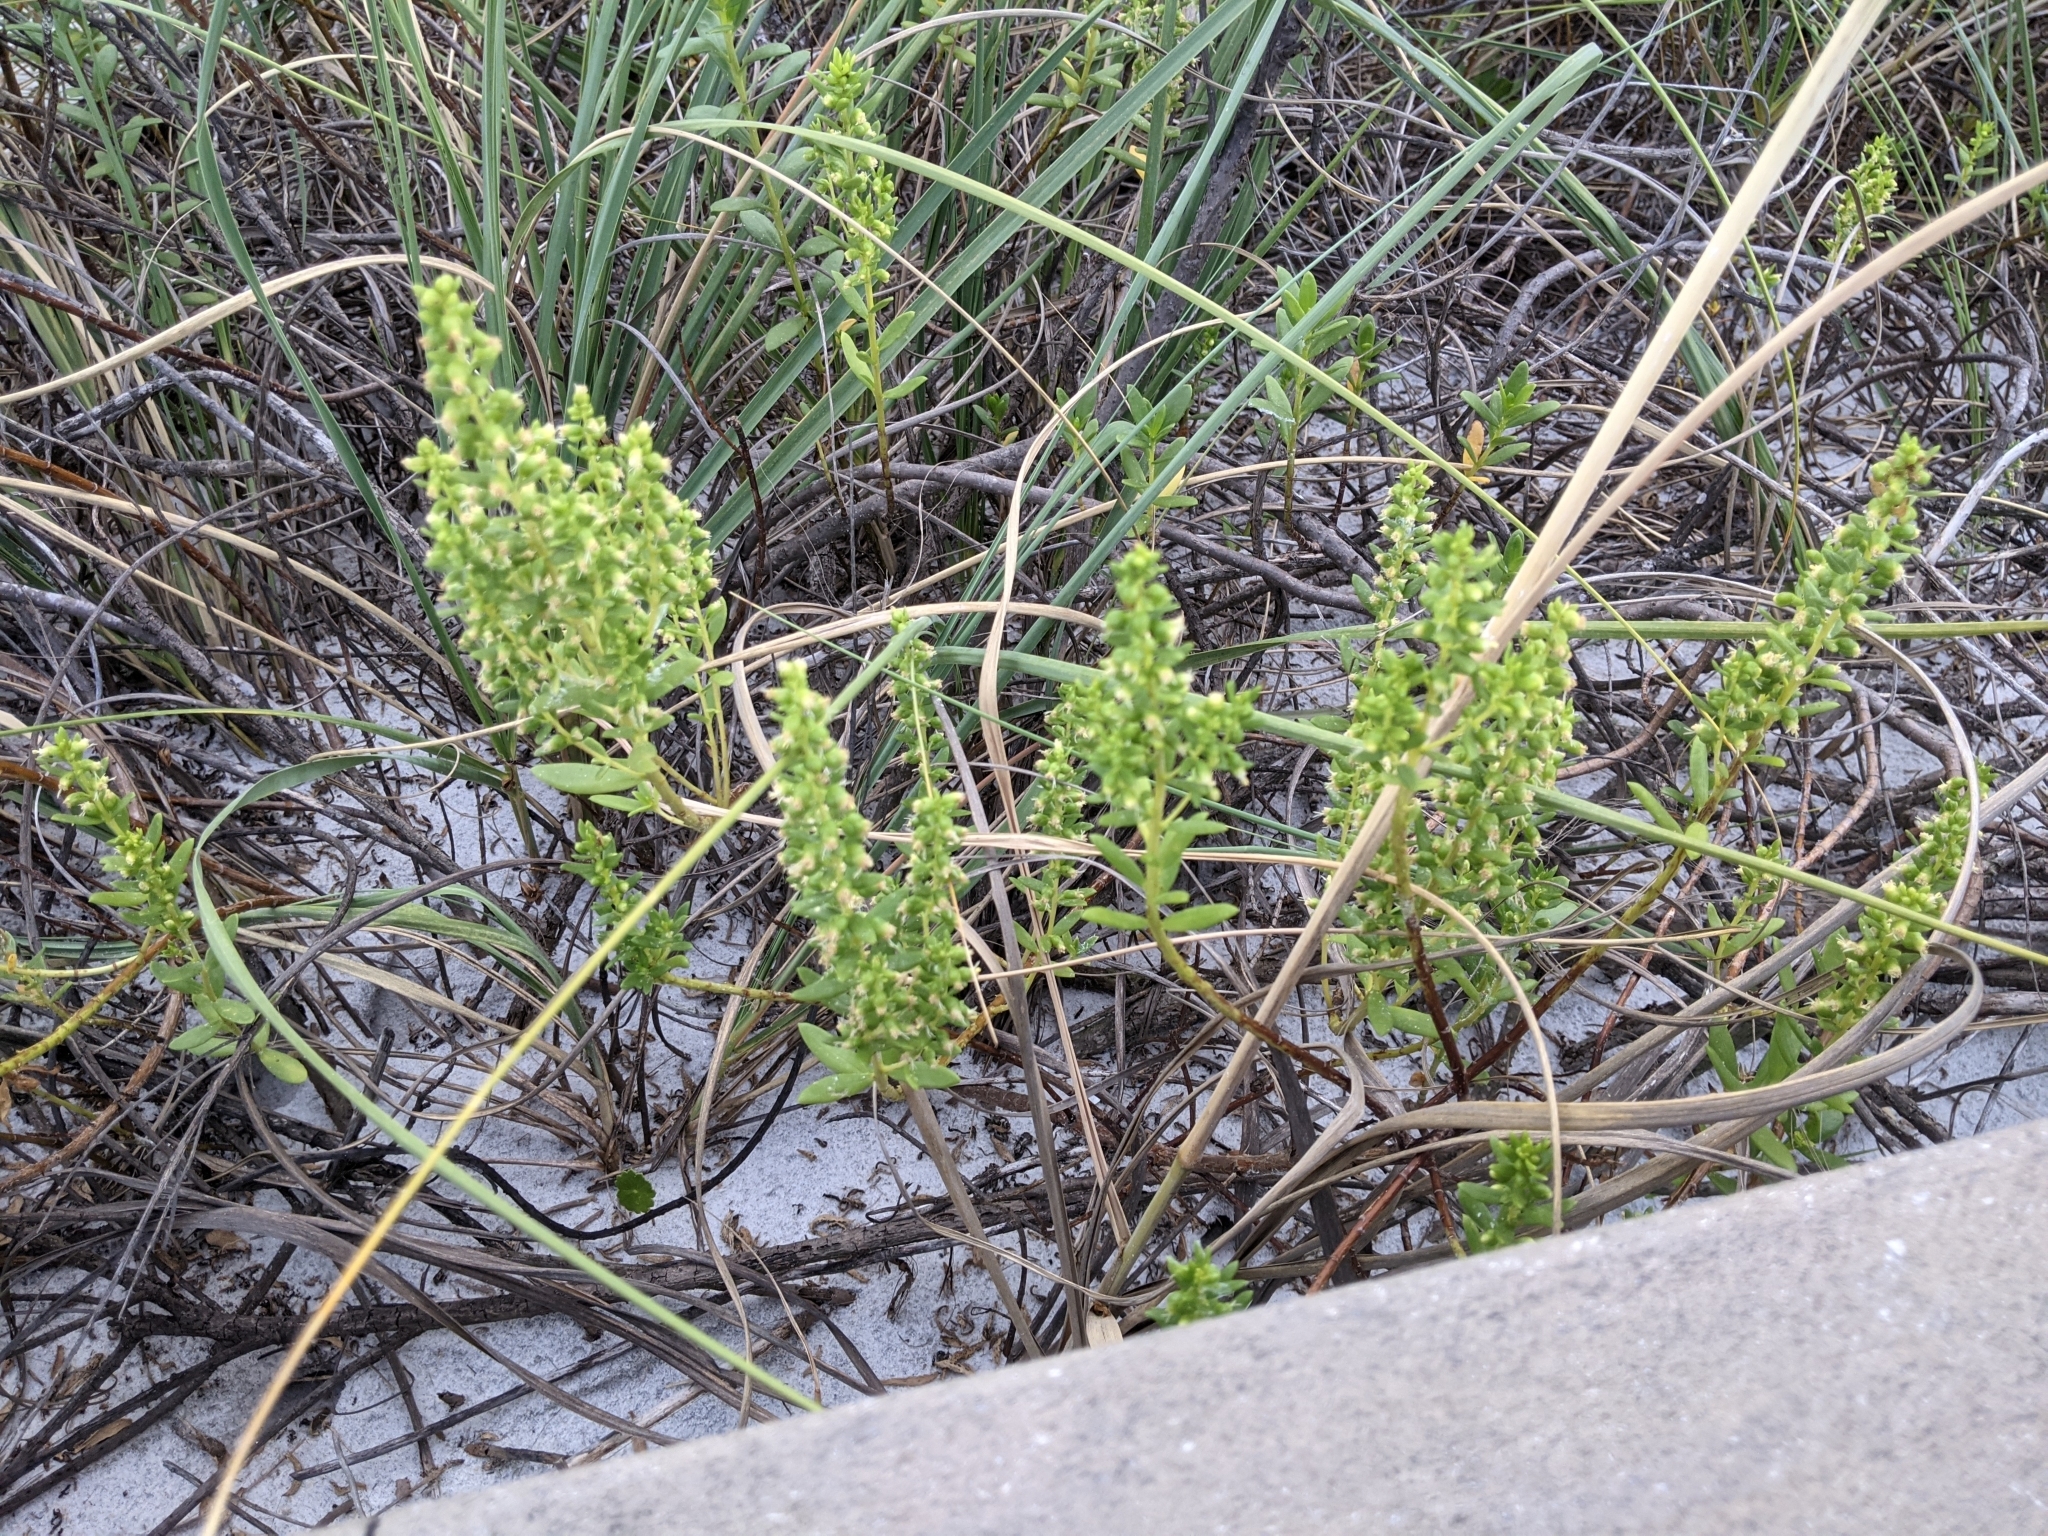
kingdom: Plantae
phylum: Tracheophyta
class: Magnoliopsida
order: Asterales
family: Asteraceae
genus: Iva
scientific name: Iva imbricata
